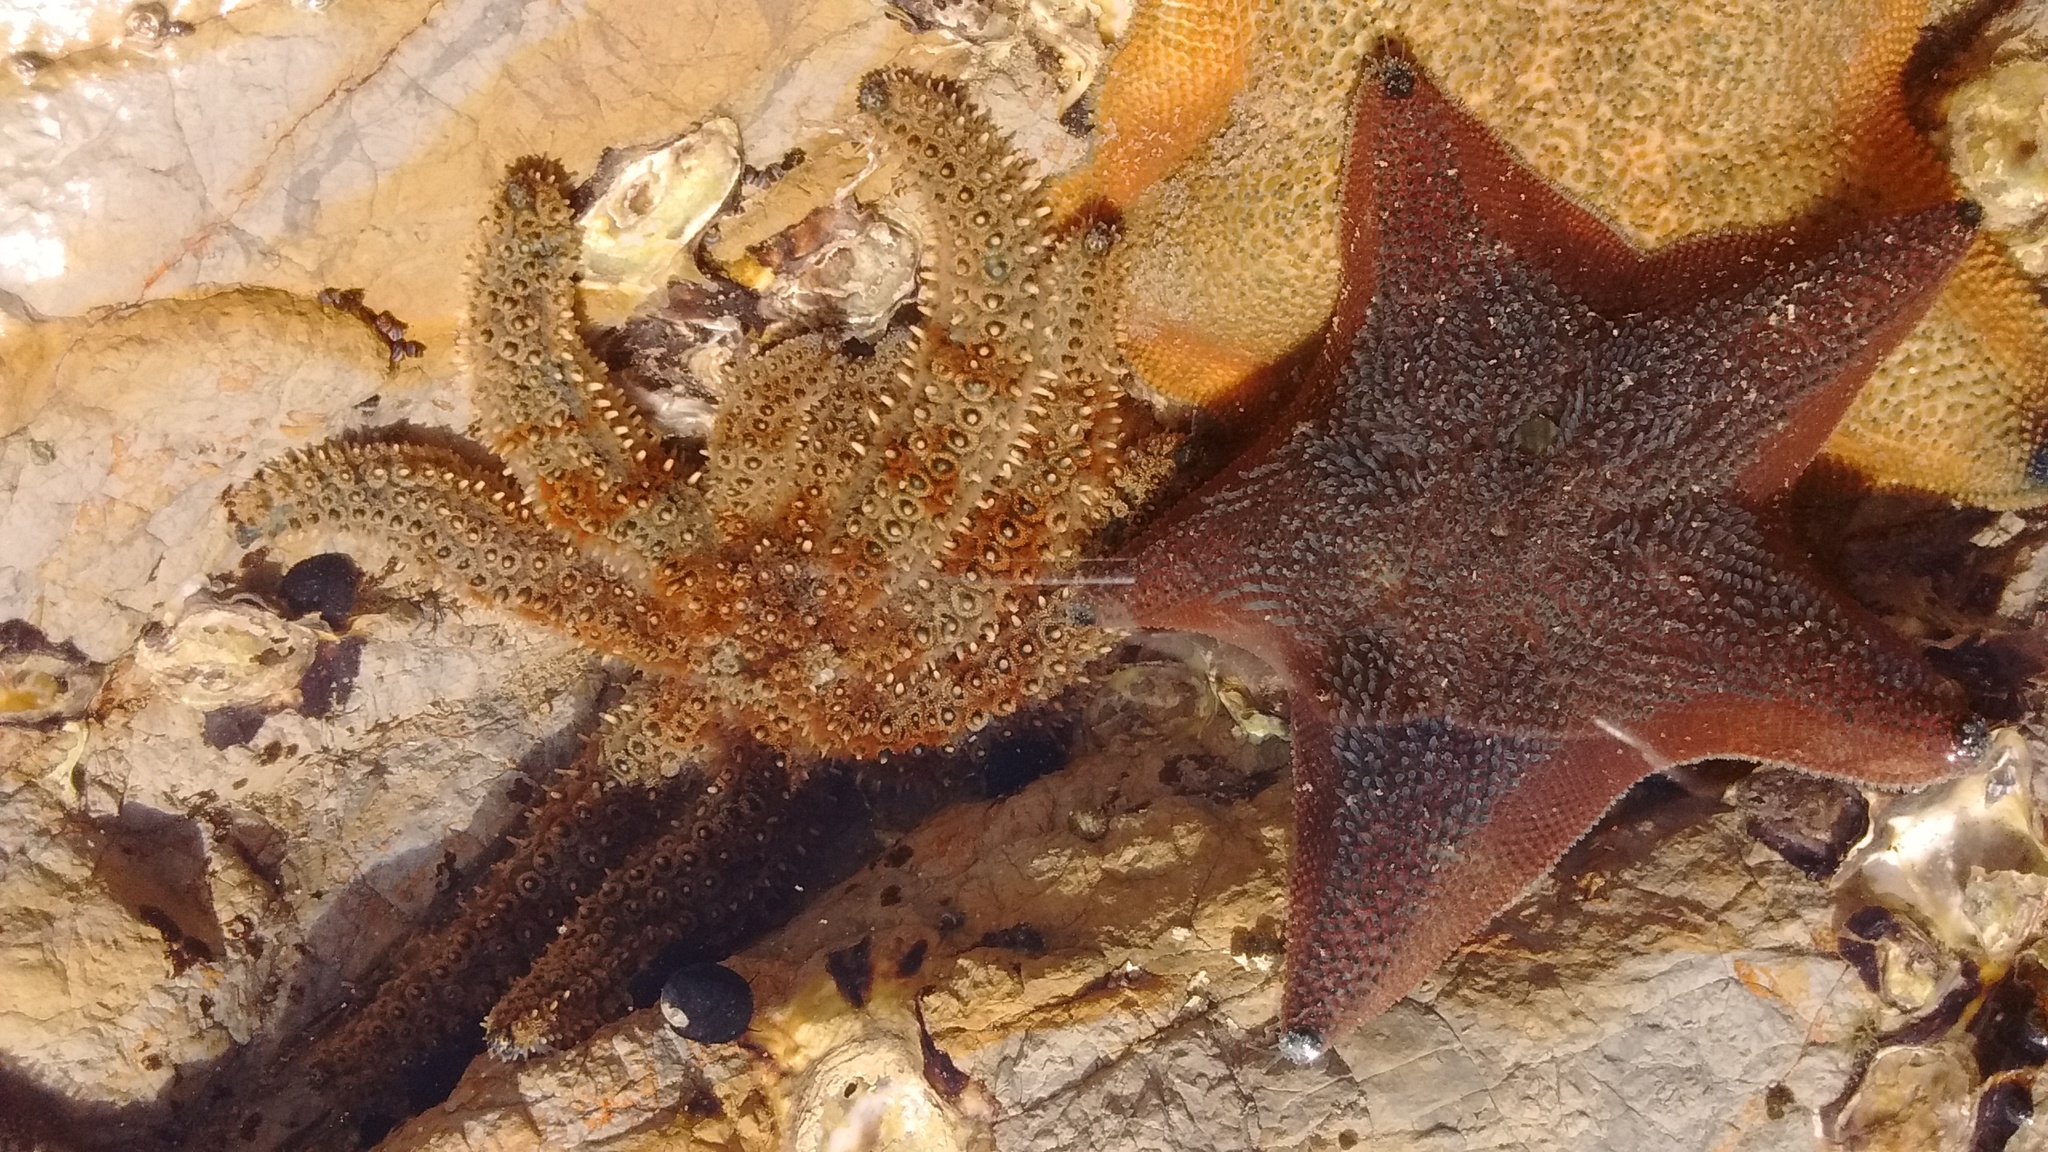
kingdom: Animalia
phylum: Echinodermata
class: Asteroidea
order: Valvatida
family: Asterinidae
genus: Patiriella
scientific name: Patiriella regularis
